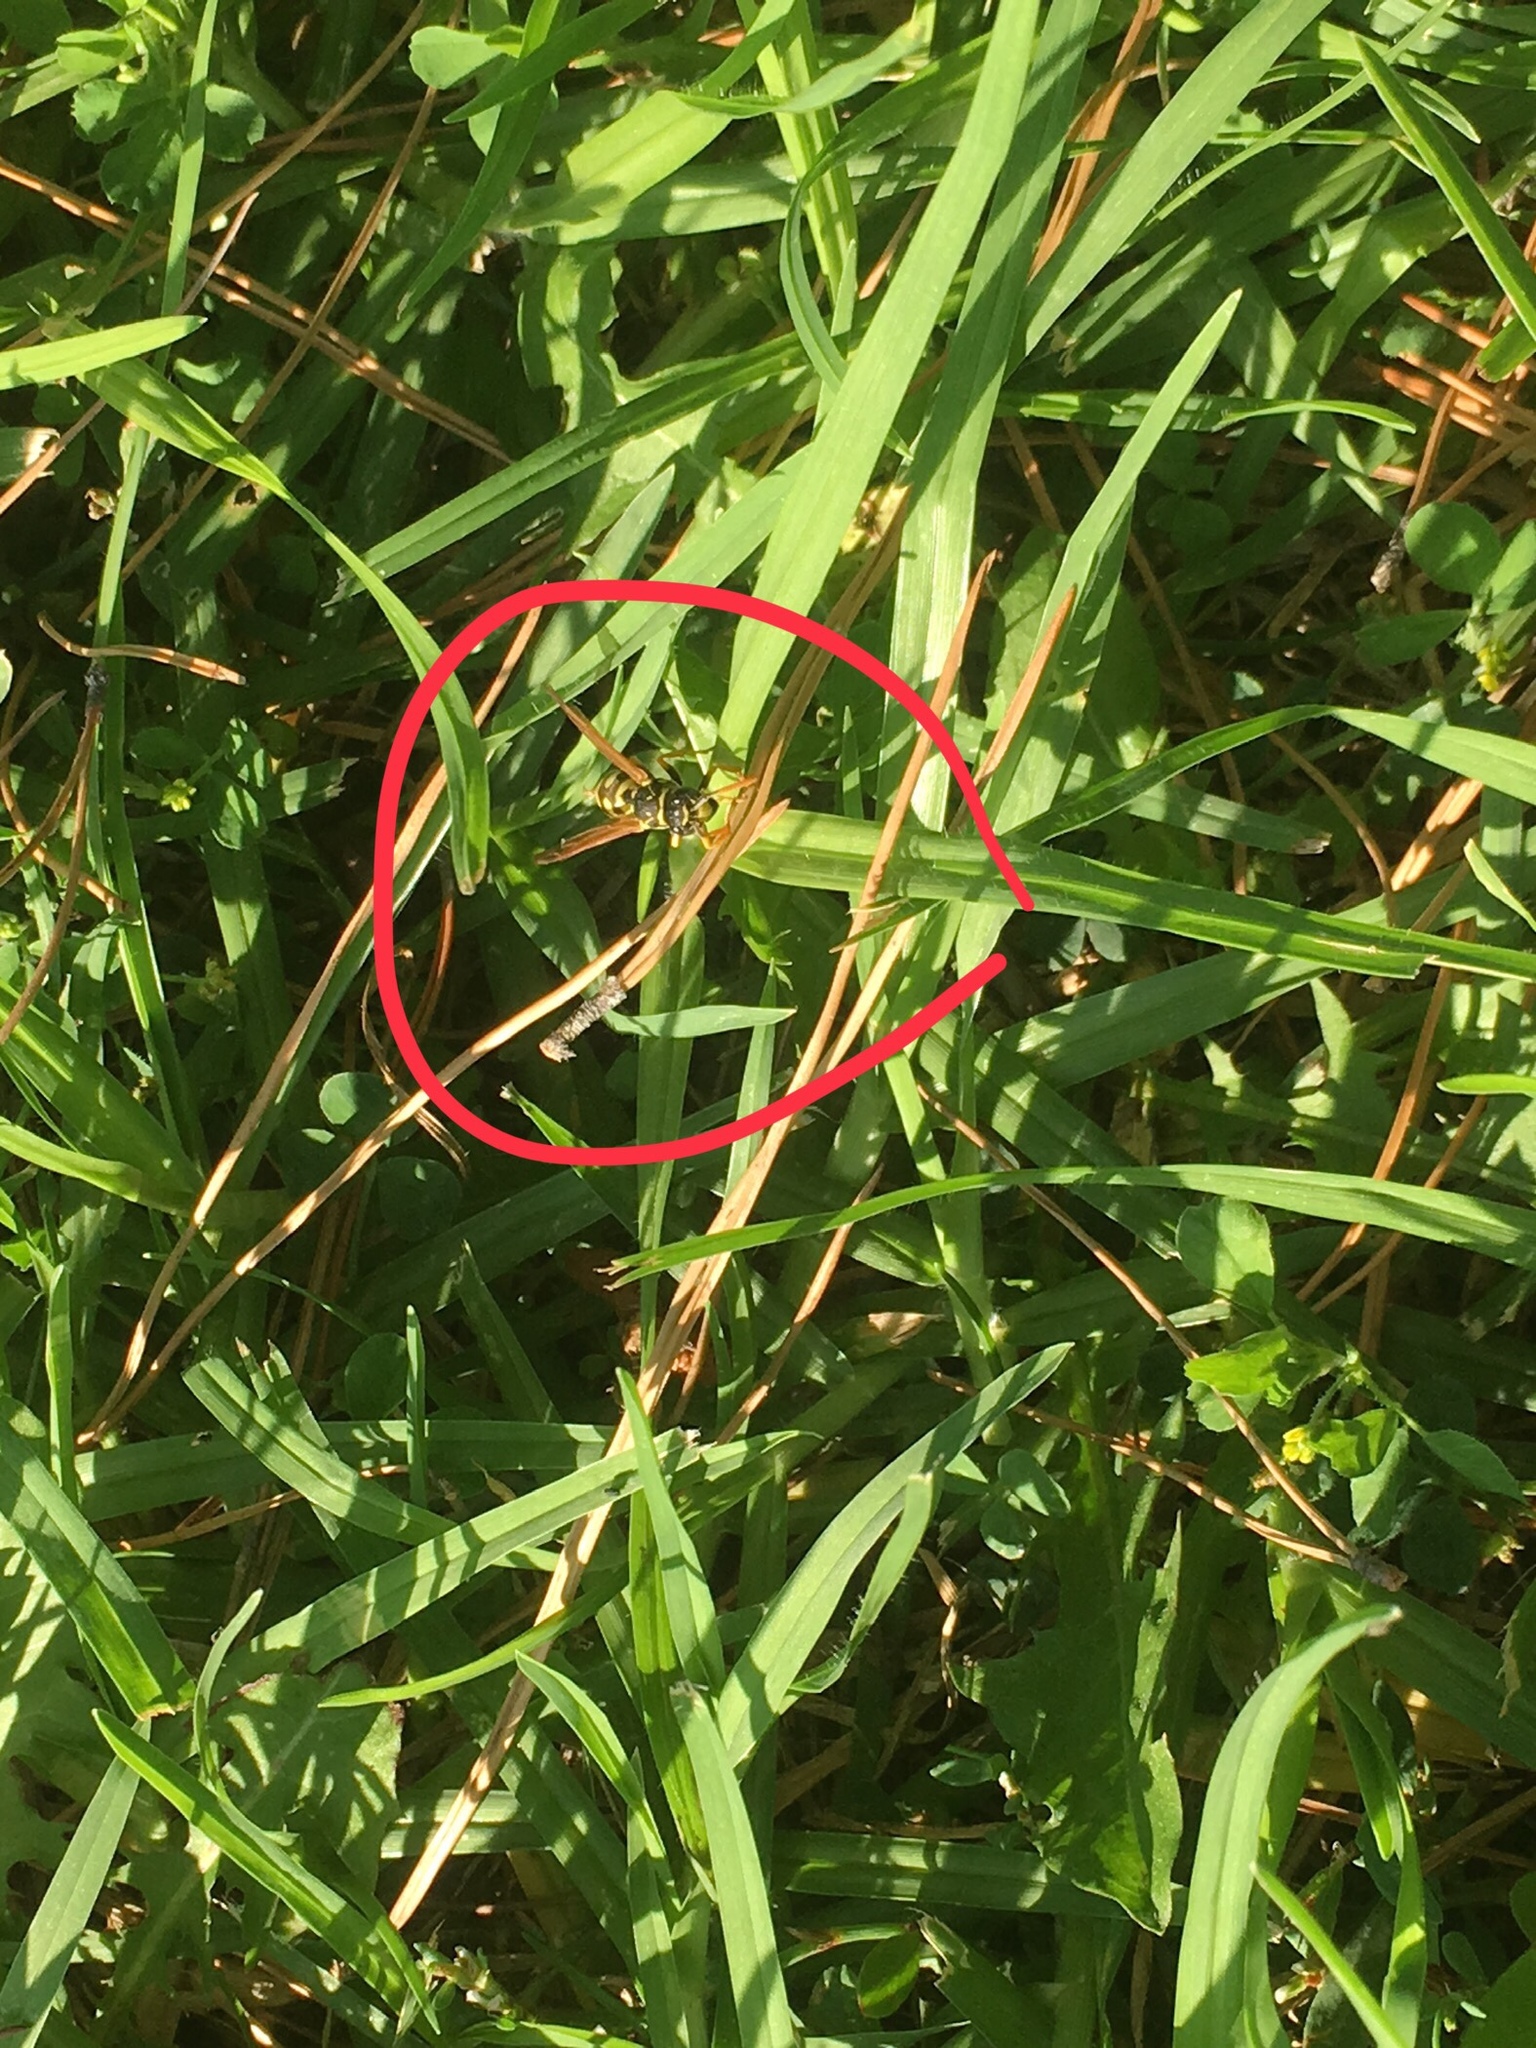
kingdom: Animalia
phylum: Arthropoda
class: Insecta
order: Hymenoptera
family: Eumenidae
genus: Polistes
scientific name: Polistes dominula
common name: Paper wasp
